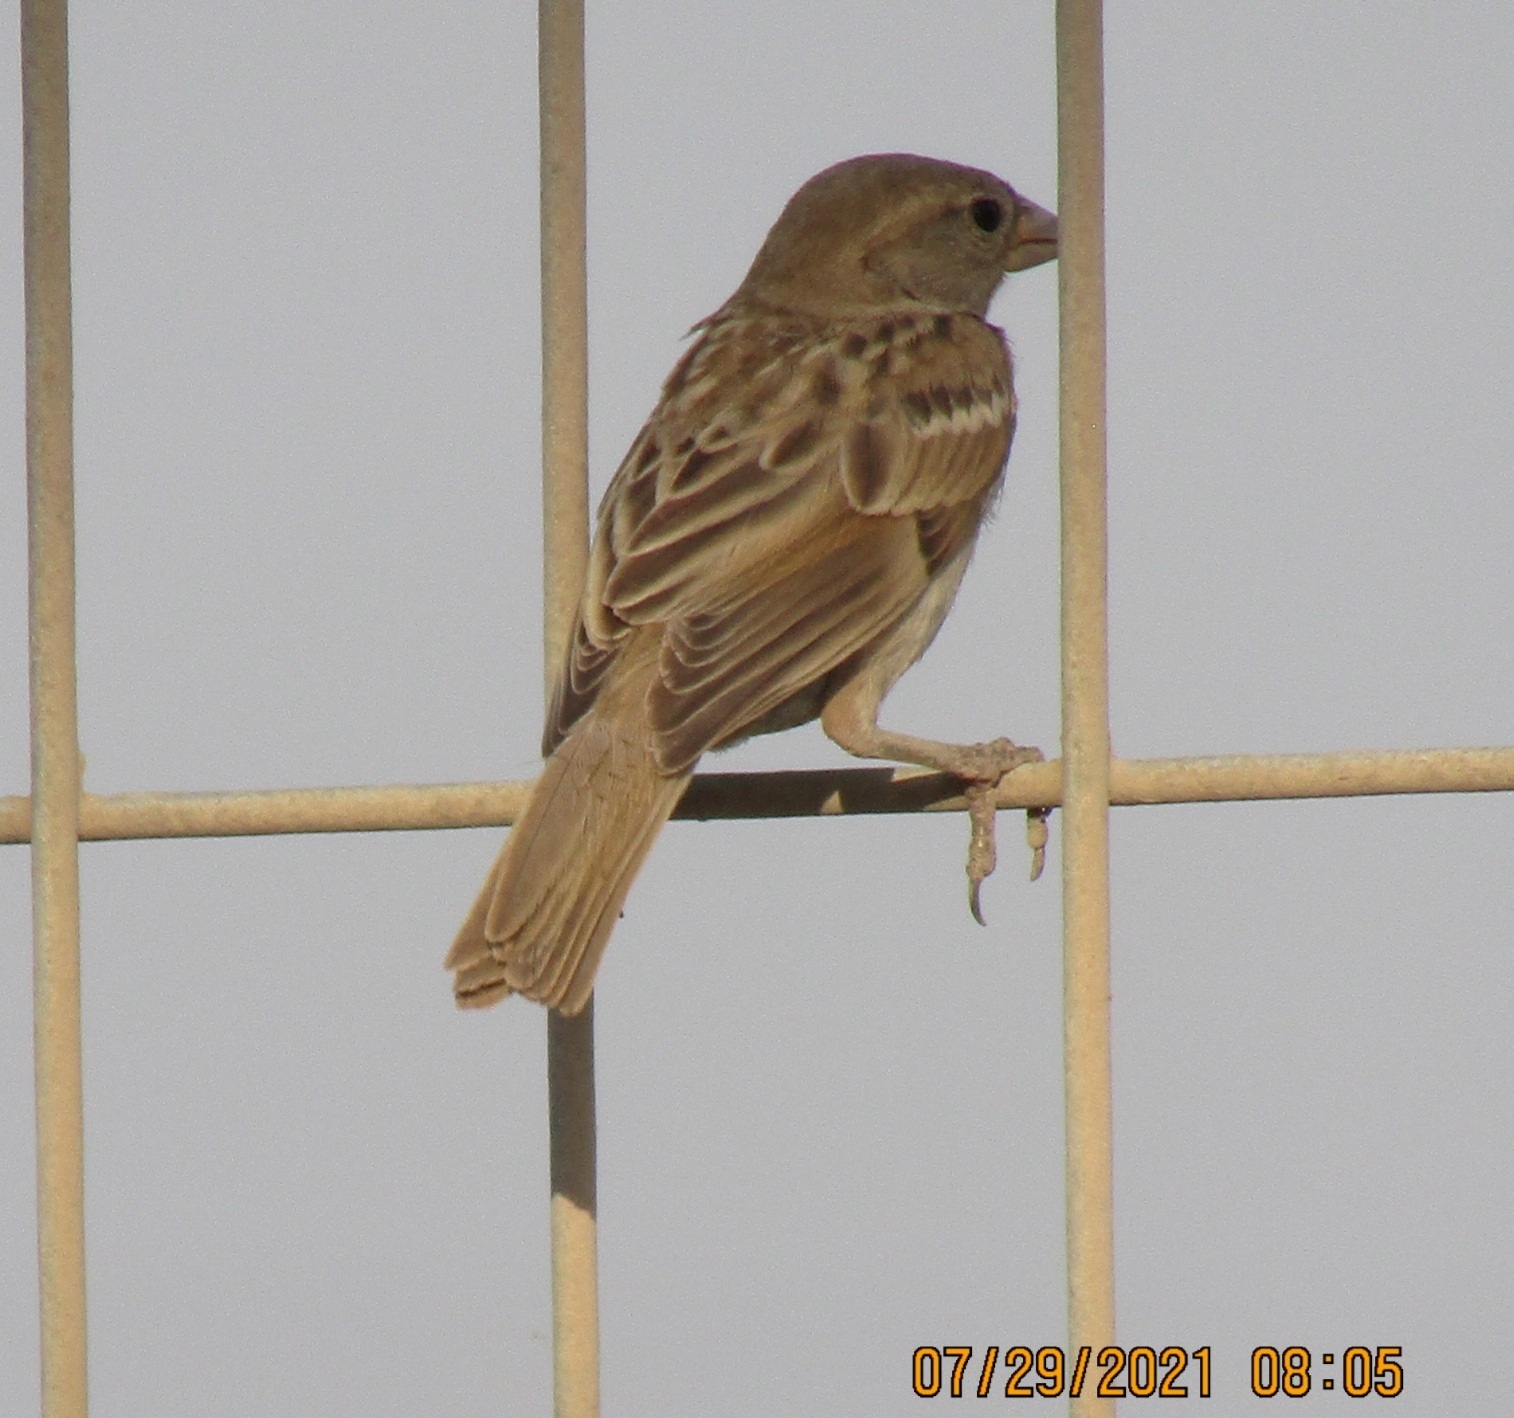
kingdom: Animalia
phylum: Chordata
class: Aves
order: Passeriformes
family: Passeridae
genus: Passer
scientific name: Passer domesticus
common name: House sparrow
